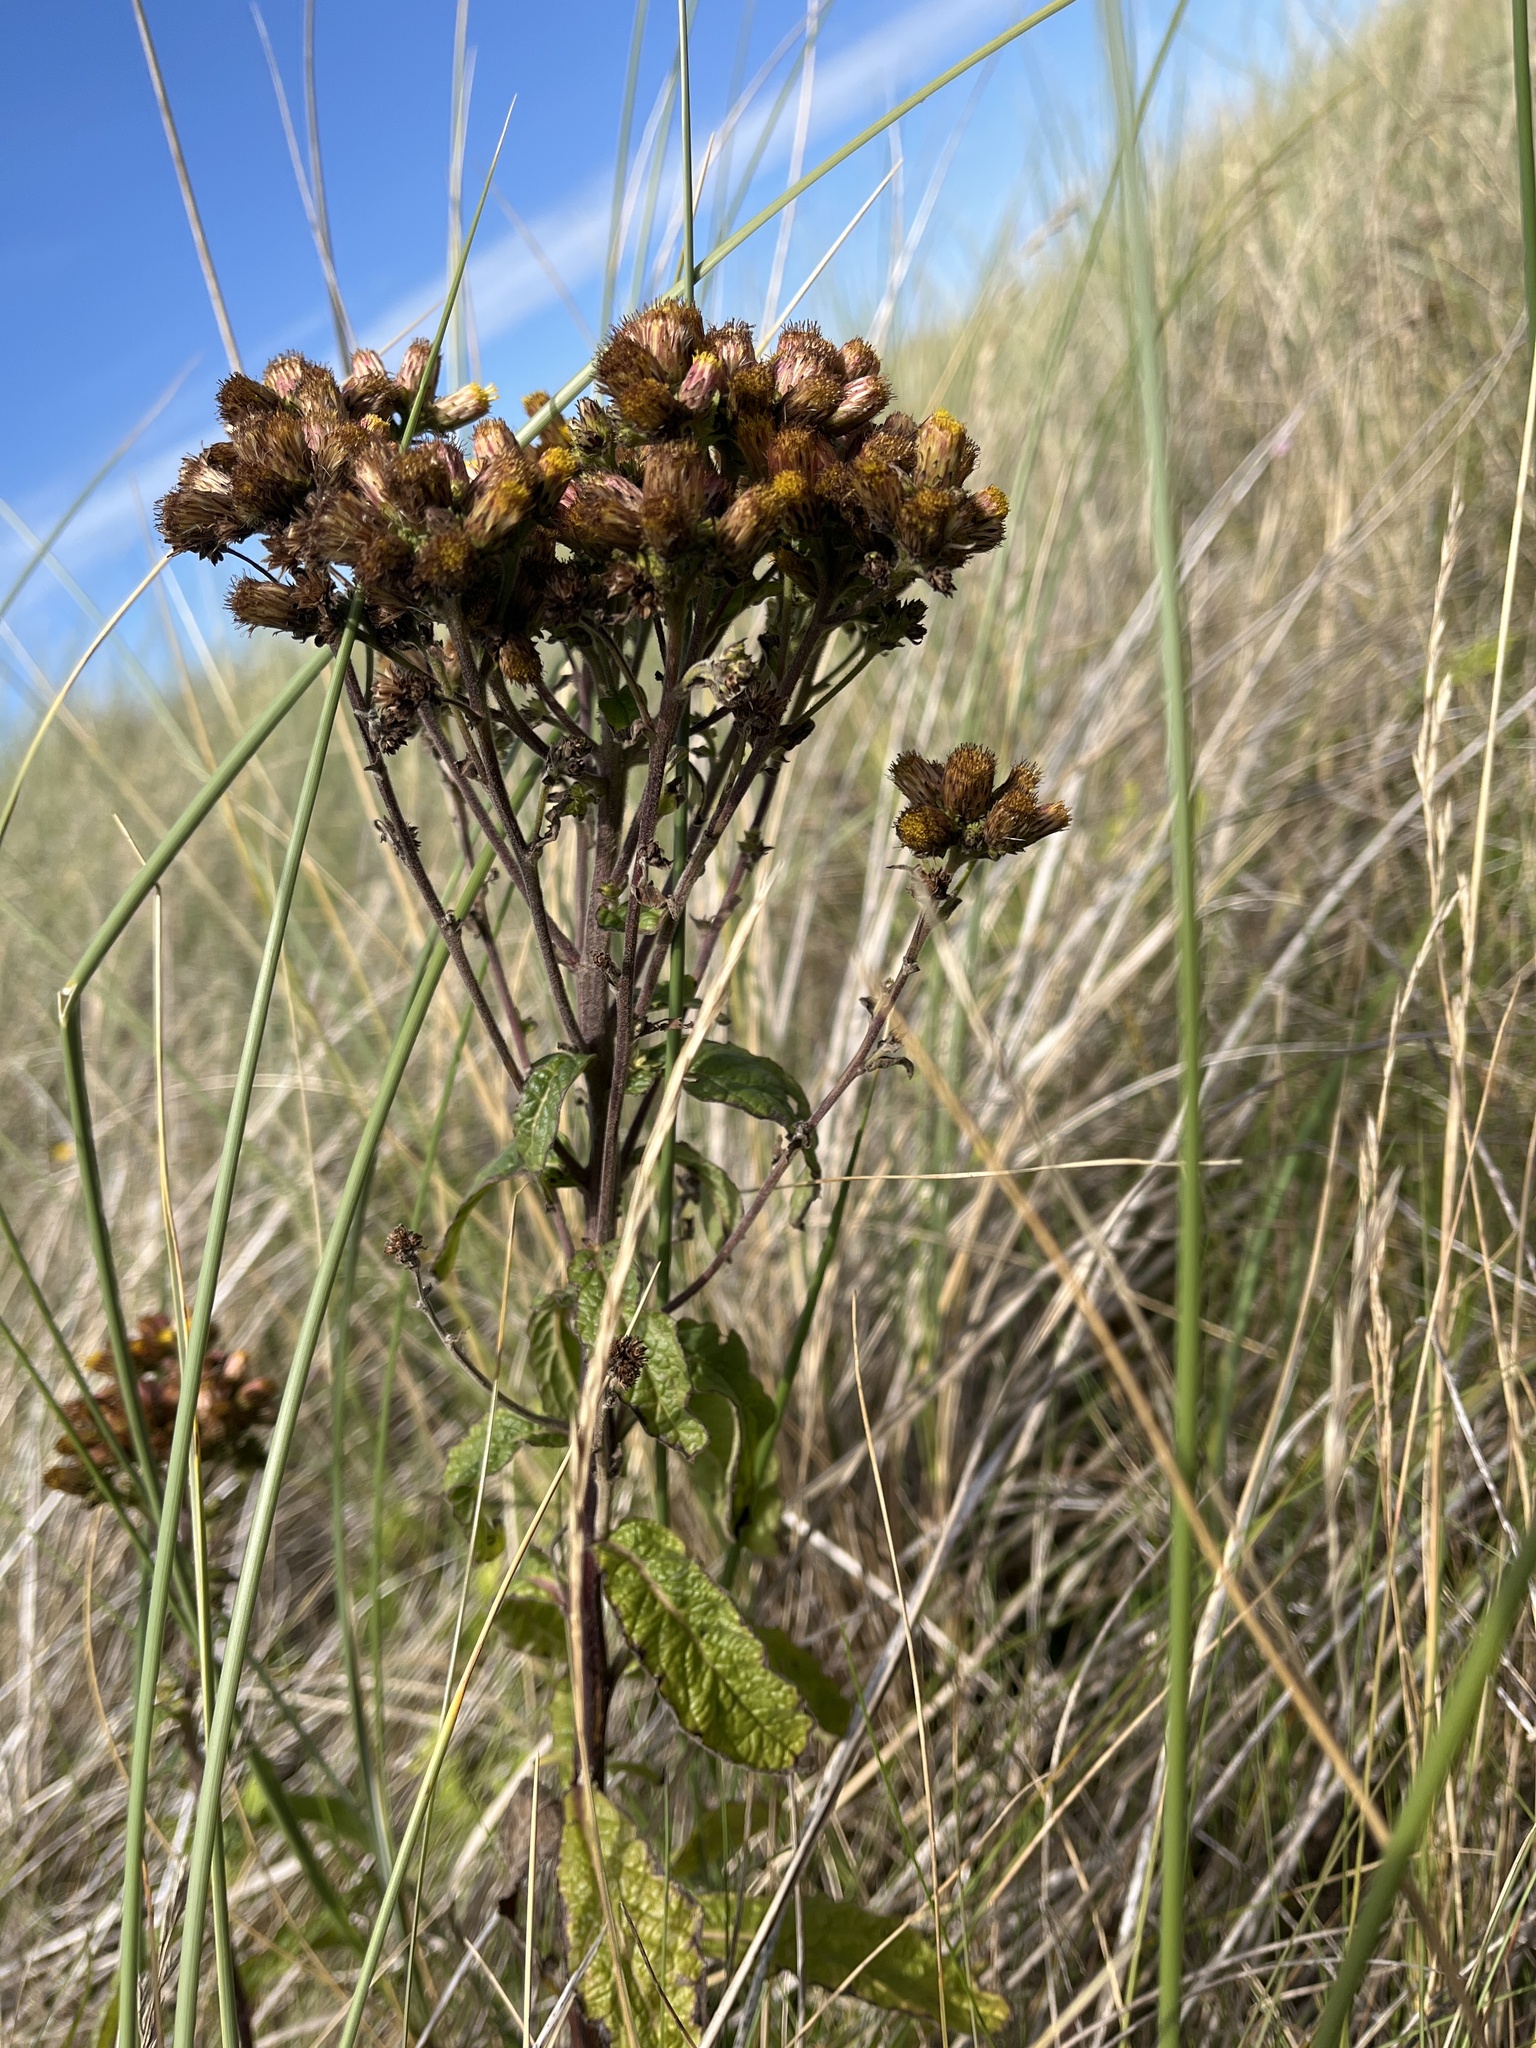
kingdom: Plantae
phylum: Tracheophyta
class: Magnoliopsida
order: Asterales
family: Asteraceae
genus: Pentanema
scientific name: Pentanema squarrosum
